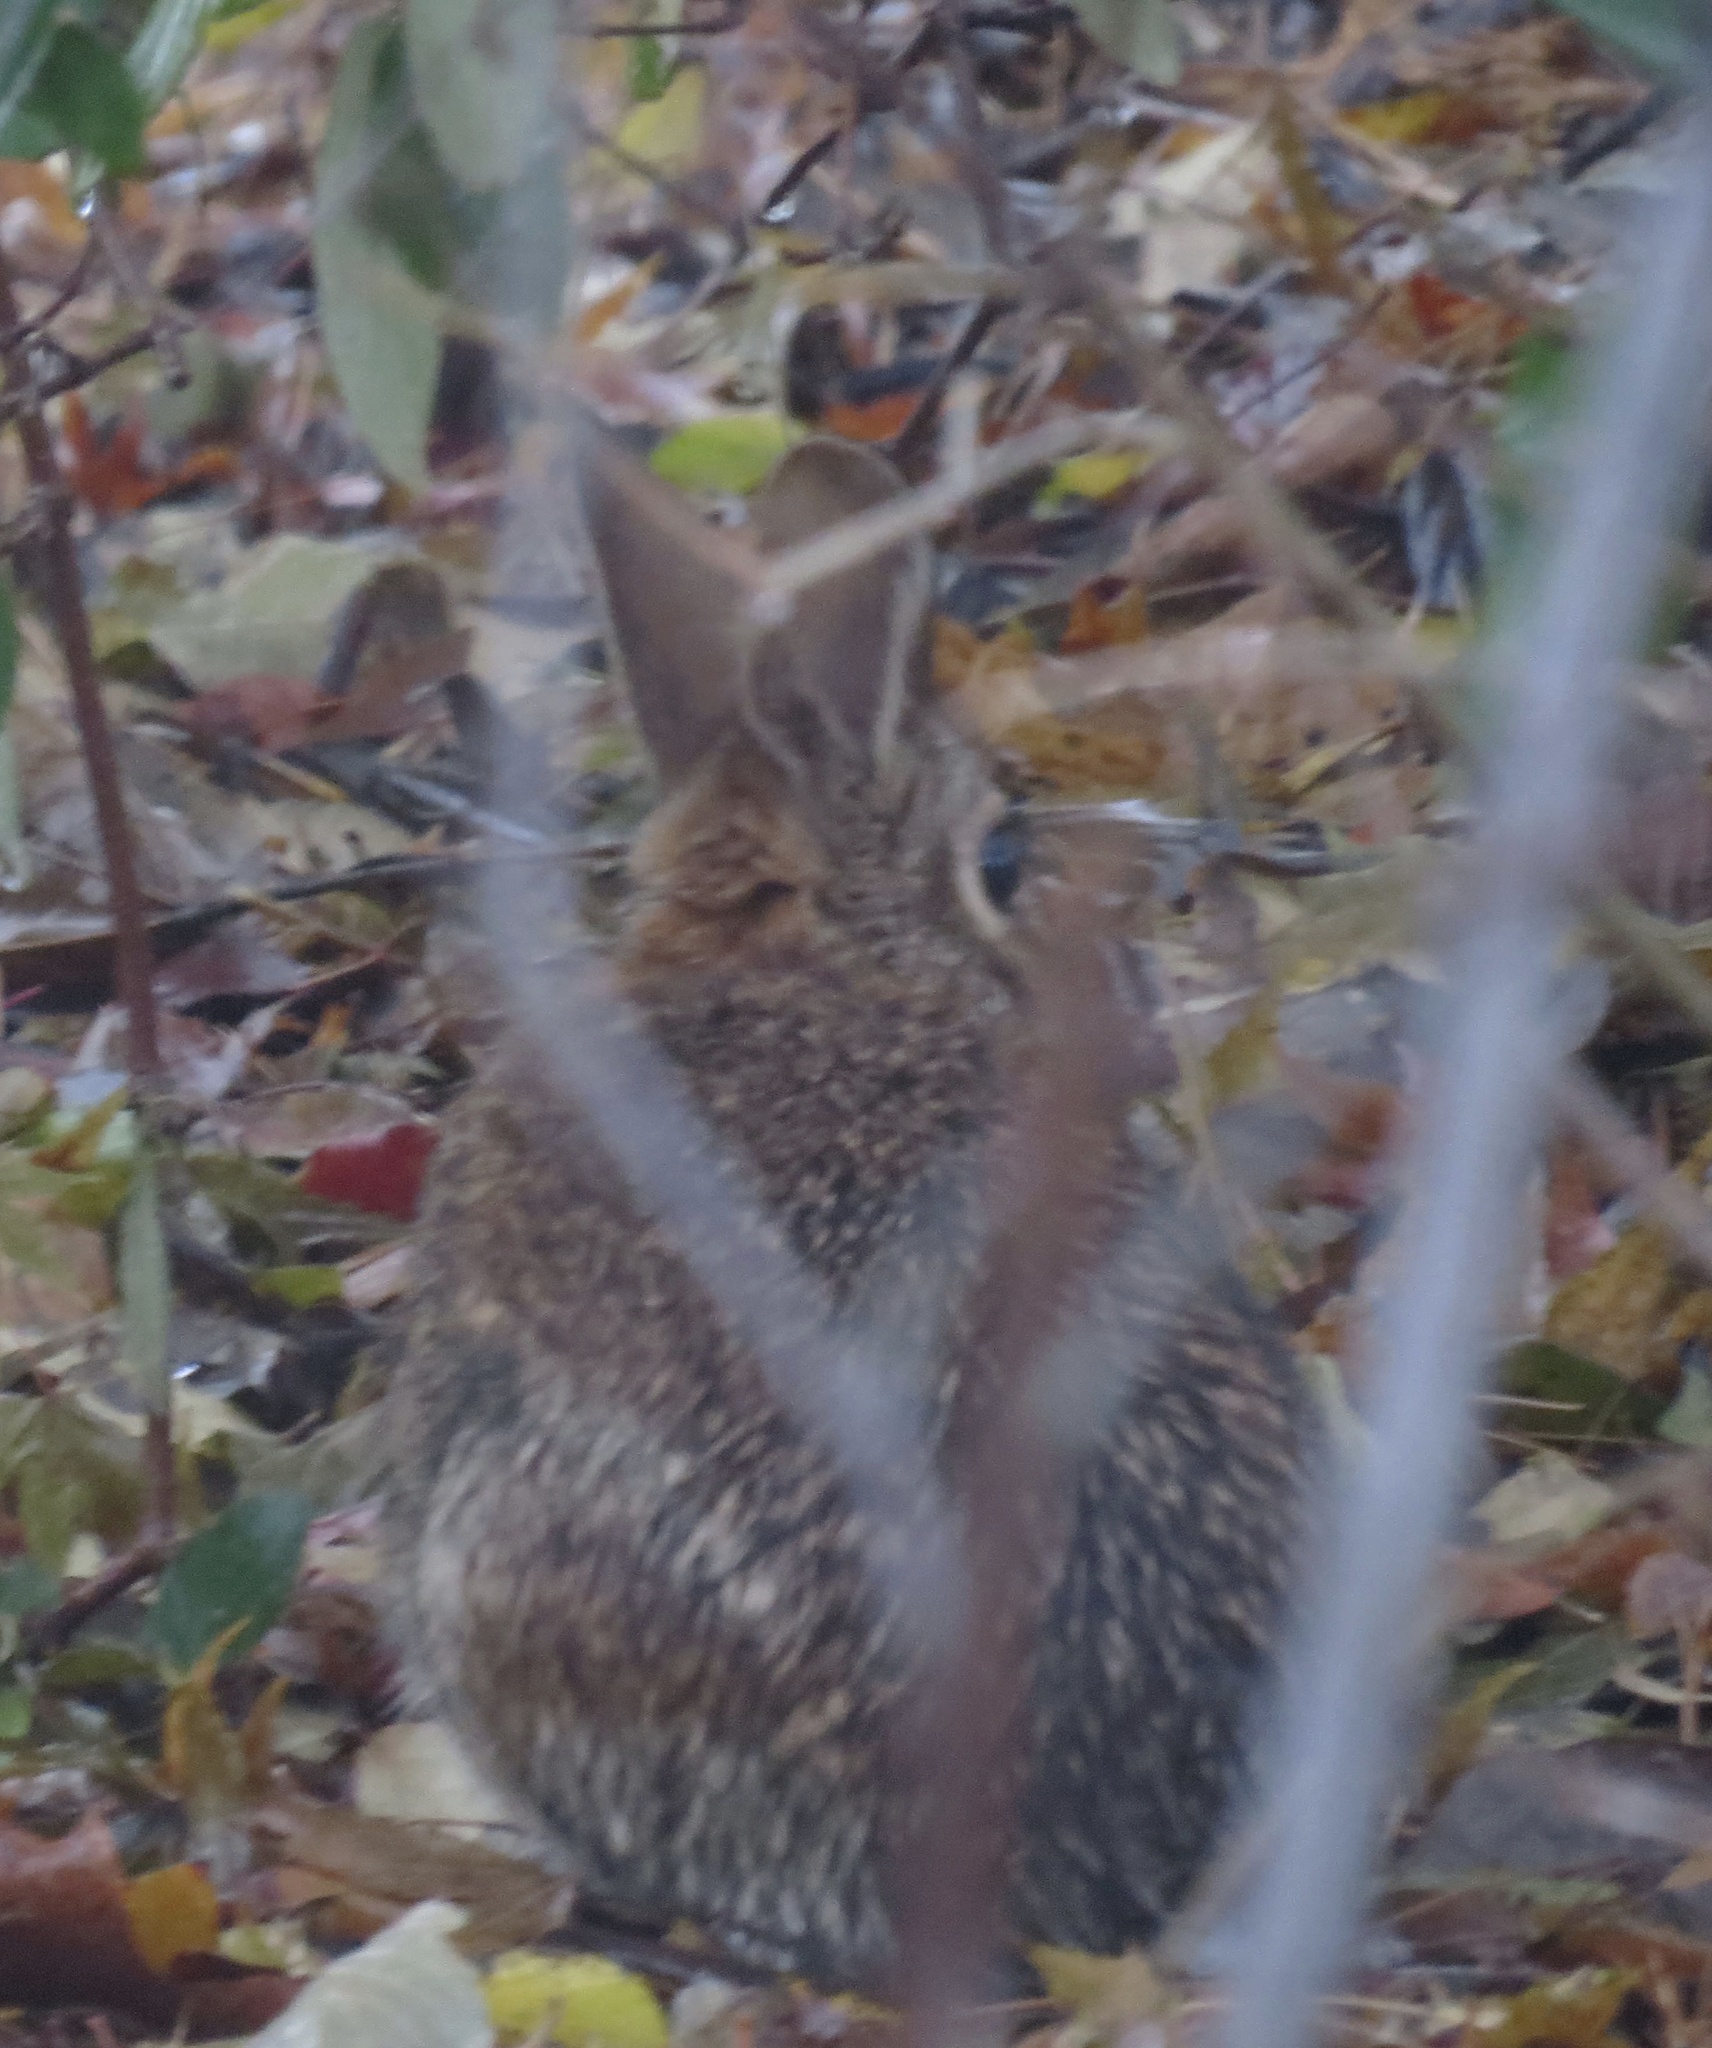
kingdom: Animalia
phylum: Chordata
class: Mammalia
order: Lagomorpha
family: Leporidae
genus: Sylvilagus
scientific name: Sylvilagus floridanus
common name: Eastern cottontail
